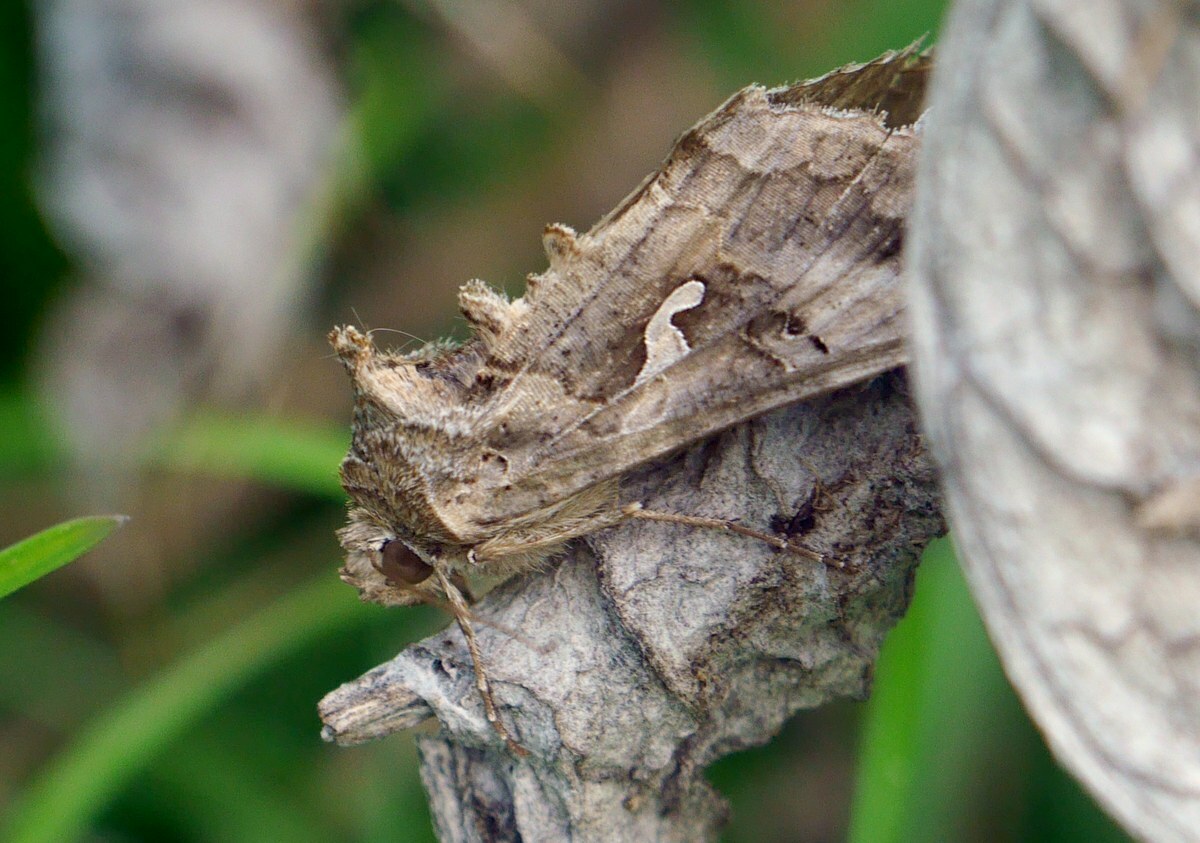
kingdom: Animalia
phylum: Arthropoda
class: Insecta
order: Lepidoptera
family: Noctuidae
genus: Autographa
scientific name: Autographa gamma
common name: Silver y
